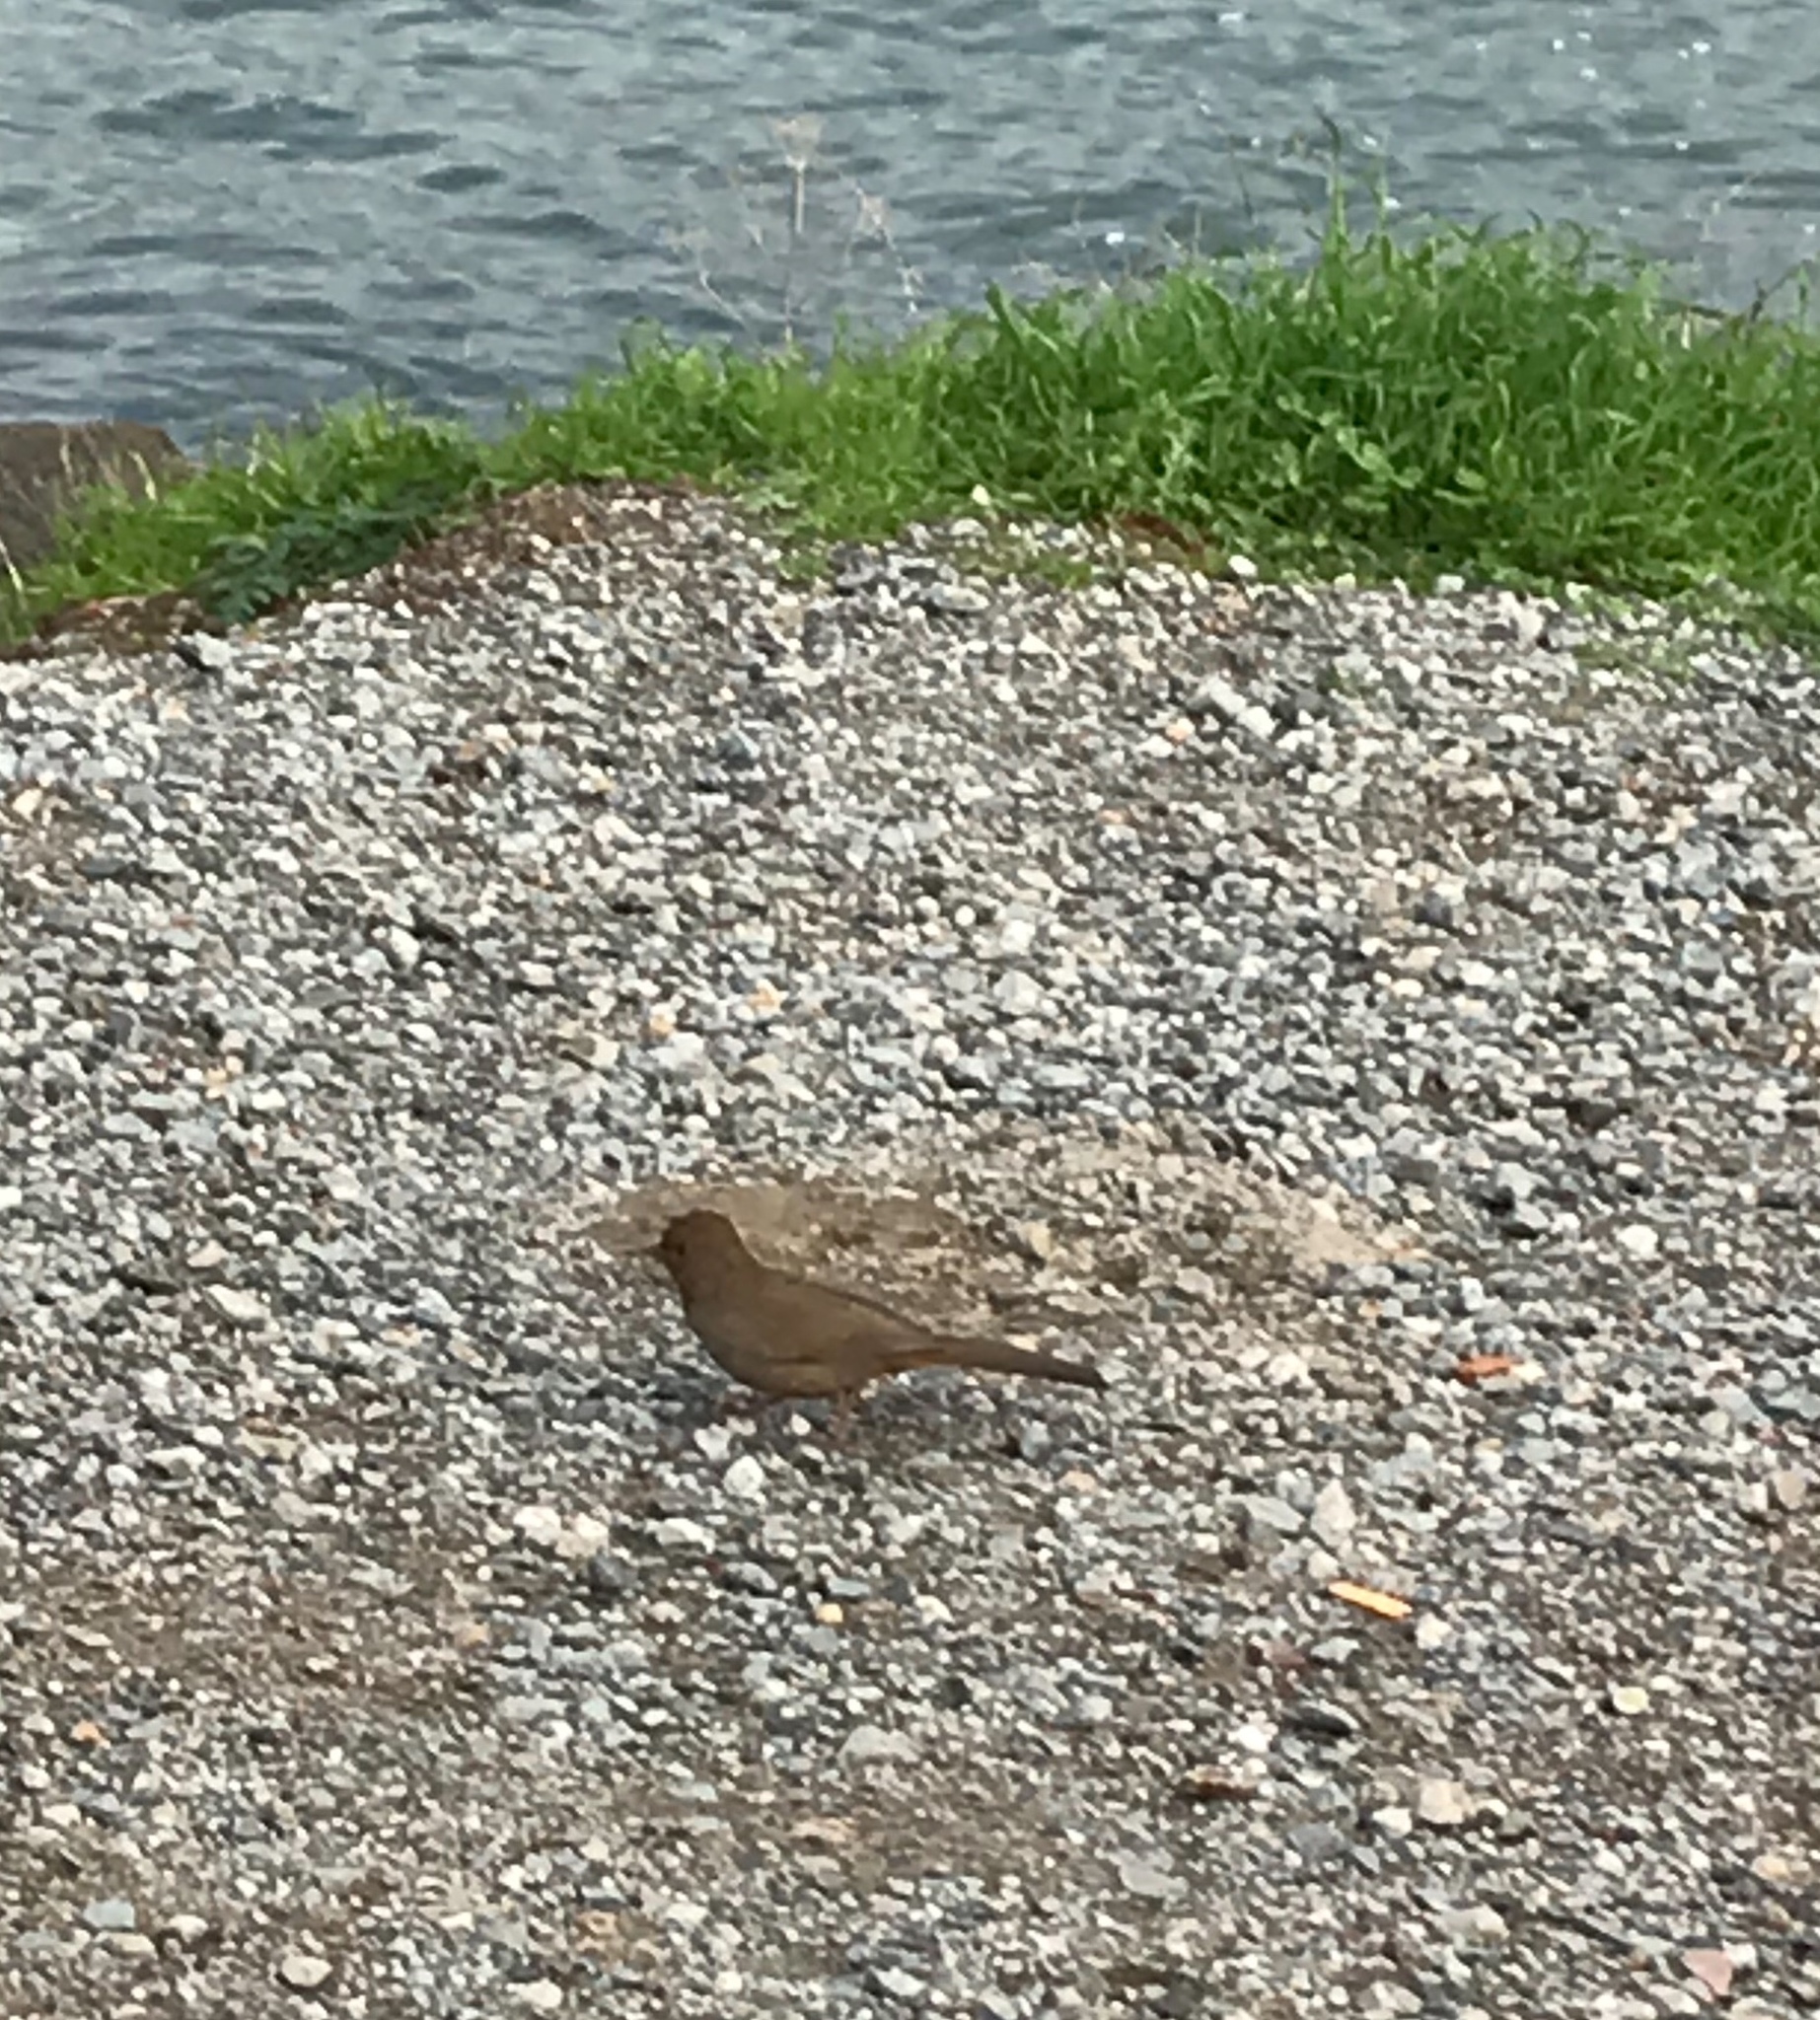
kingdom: Animalia
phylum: Chordata
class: Aves
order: Passeriformes
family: Passerellidae
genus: Melozone
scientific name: Melozone crissalis
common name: California towhee
